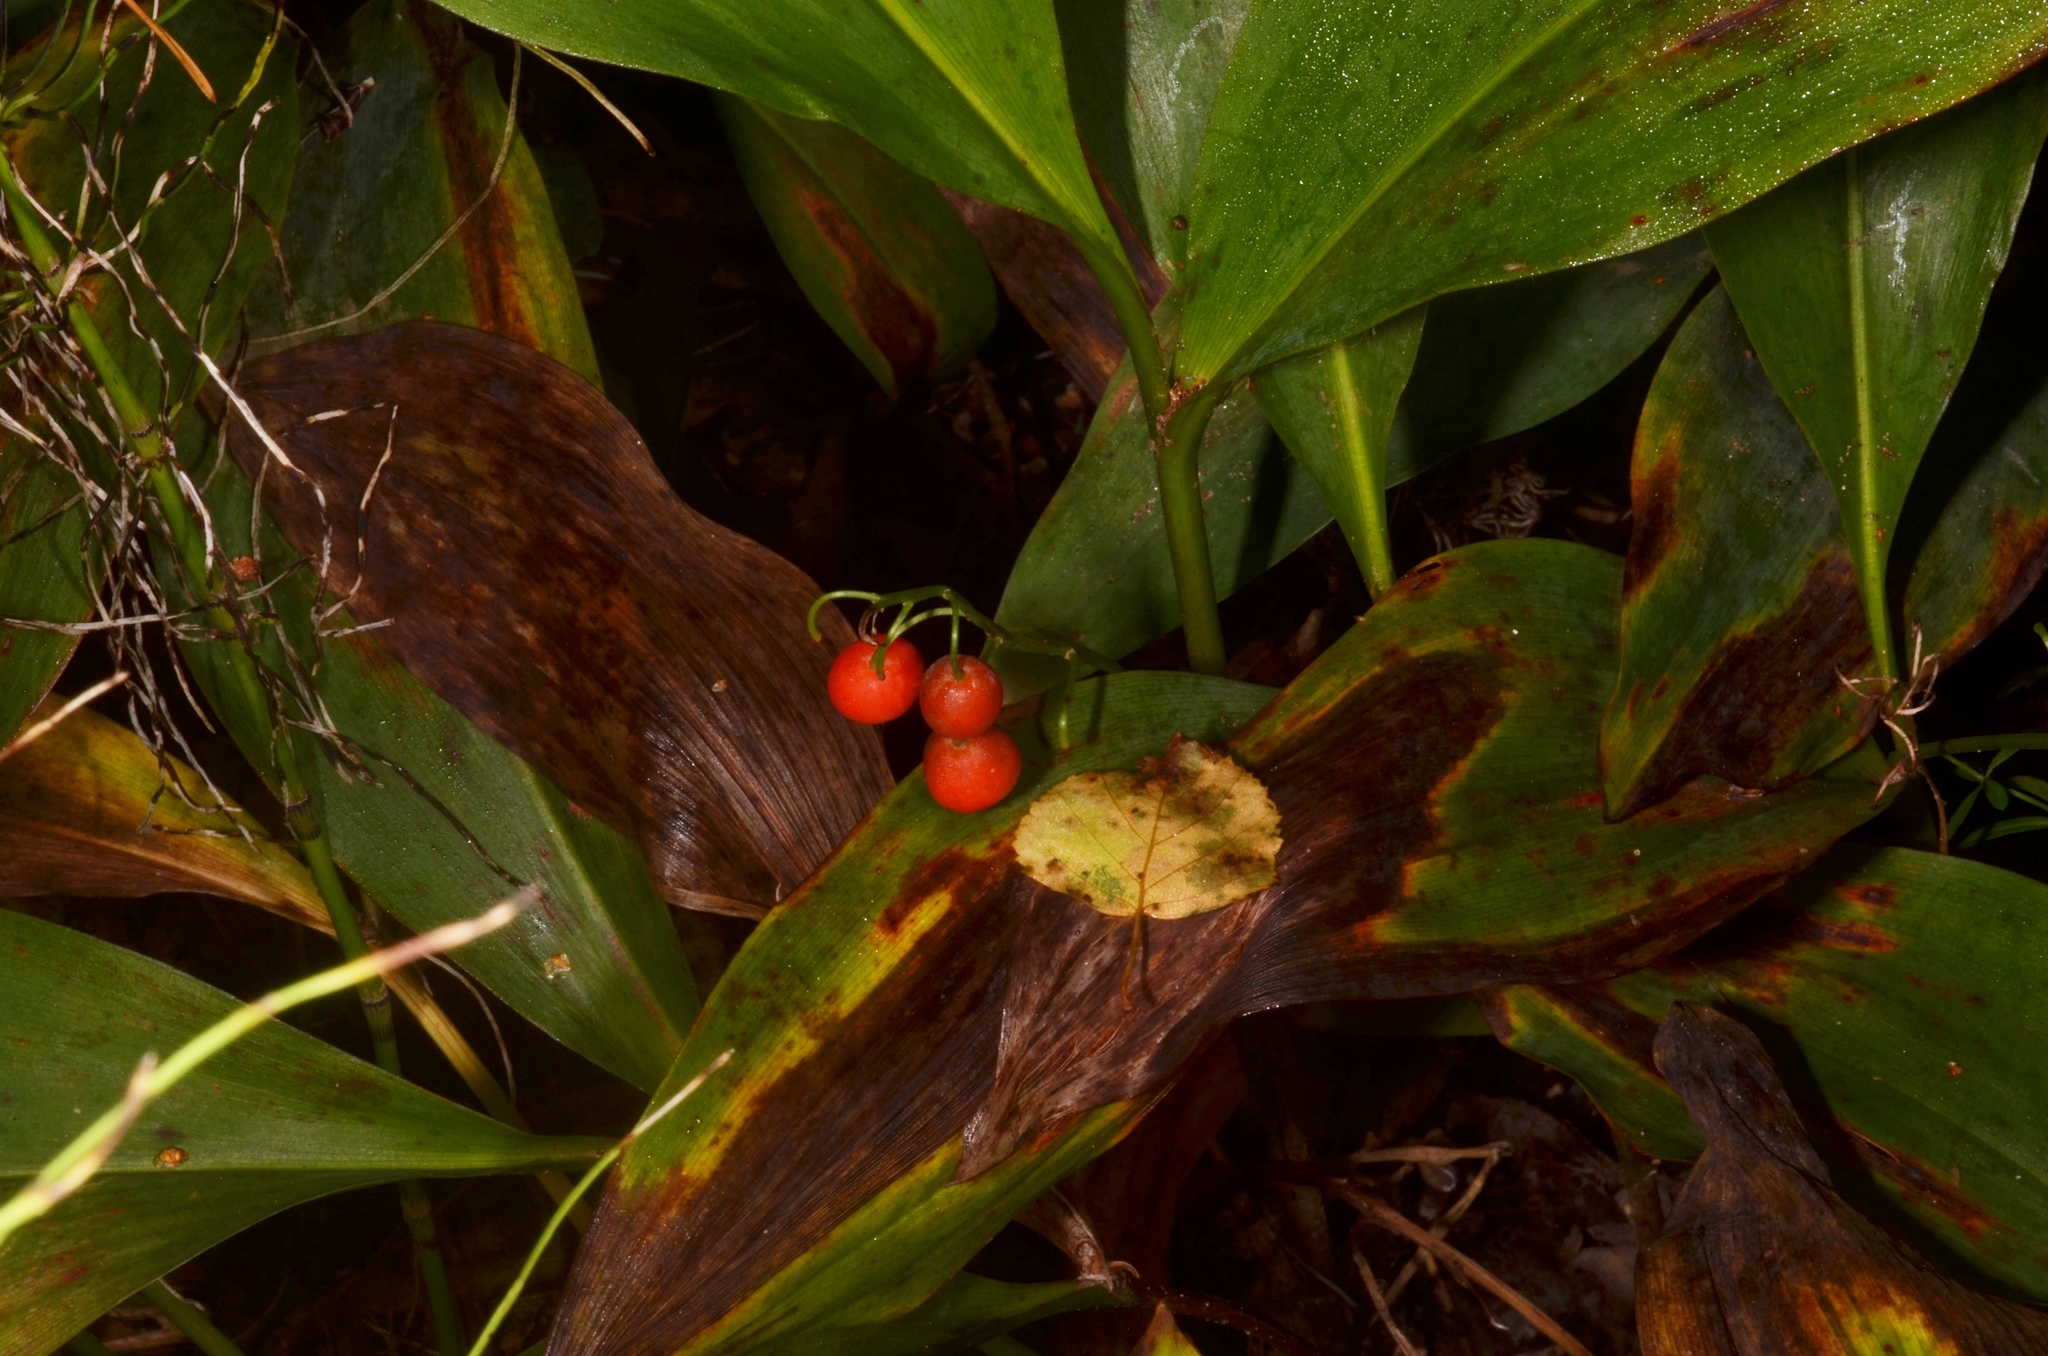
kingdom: Plantae
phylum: Tracheophyta
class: Liliopsida
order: Asparagales
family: Asparagaceae
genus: Convallaria
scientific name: Convallaria majalis
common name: Lily-of-the-valley
